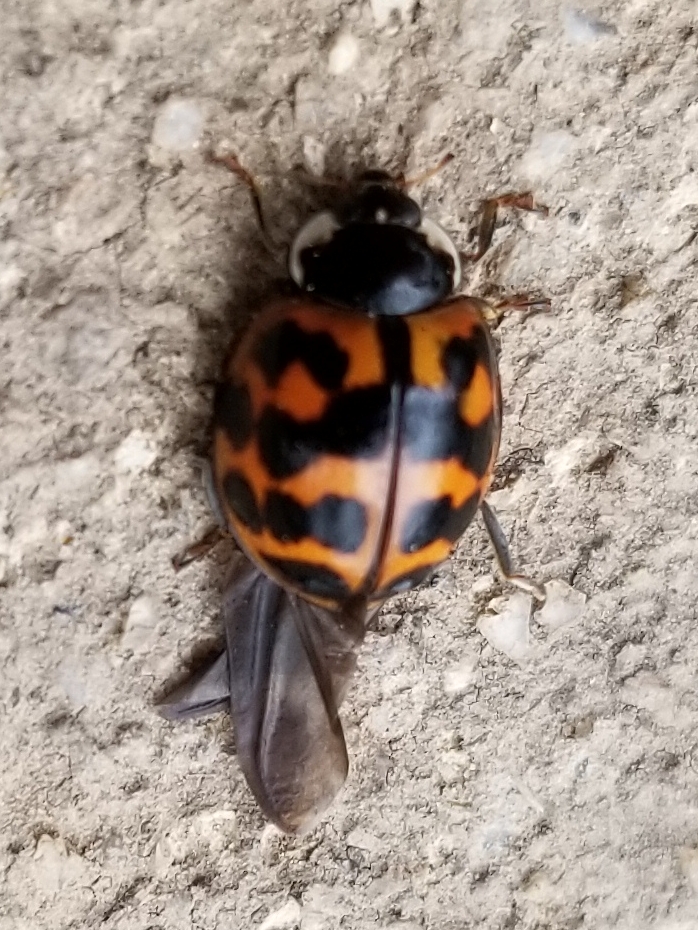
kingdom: Animalia
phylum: Arthropoda
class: Insecta
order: Coleoptera
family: Coccinellidae
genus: Harmonia
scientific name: Harmonia axyridis
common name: Harlequin ladybird
